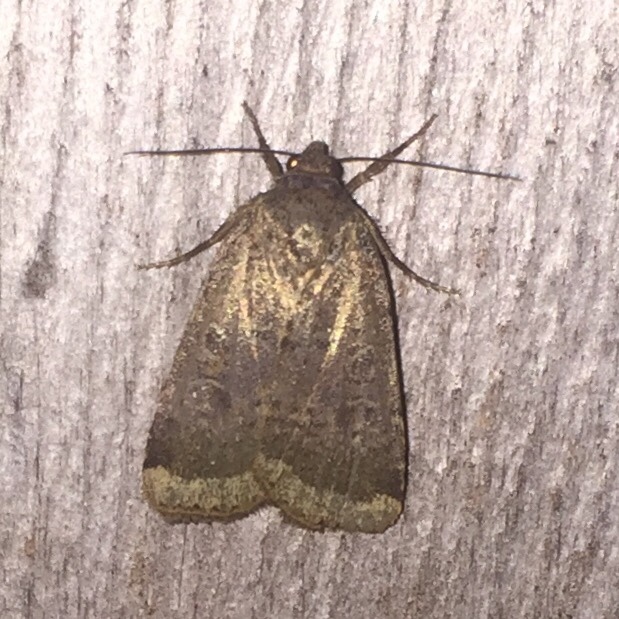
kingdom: Animalia
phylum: Arthropoda
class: Insecta
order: Lepidoptera
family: Noctuidae
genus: Amphipyra
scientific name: Amphipyra glabella
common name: Smooth amphipyra moth
